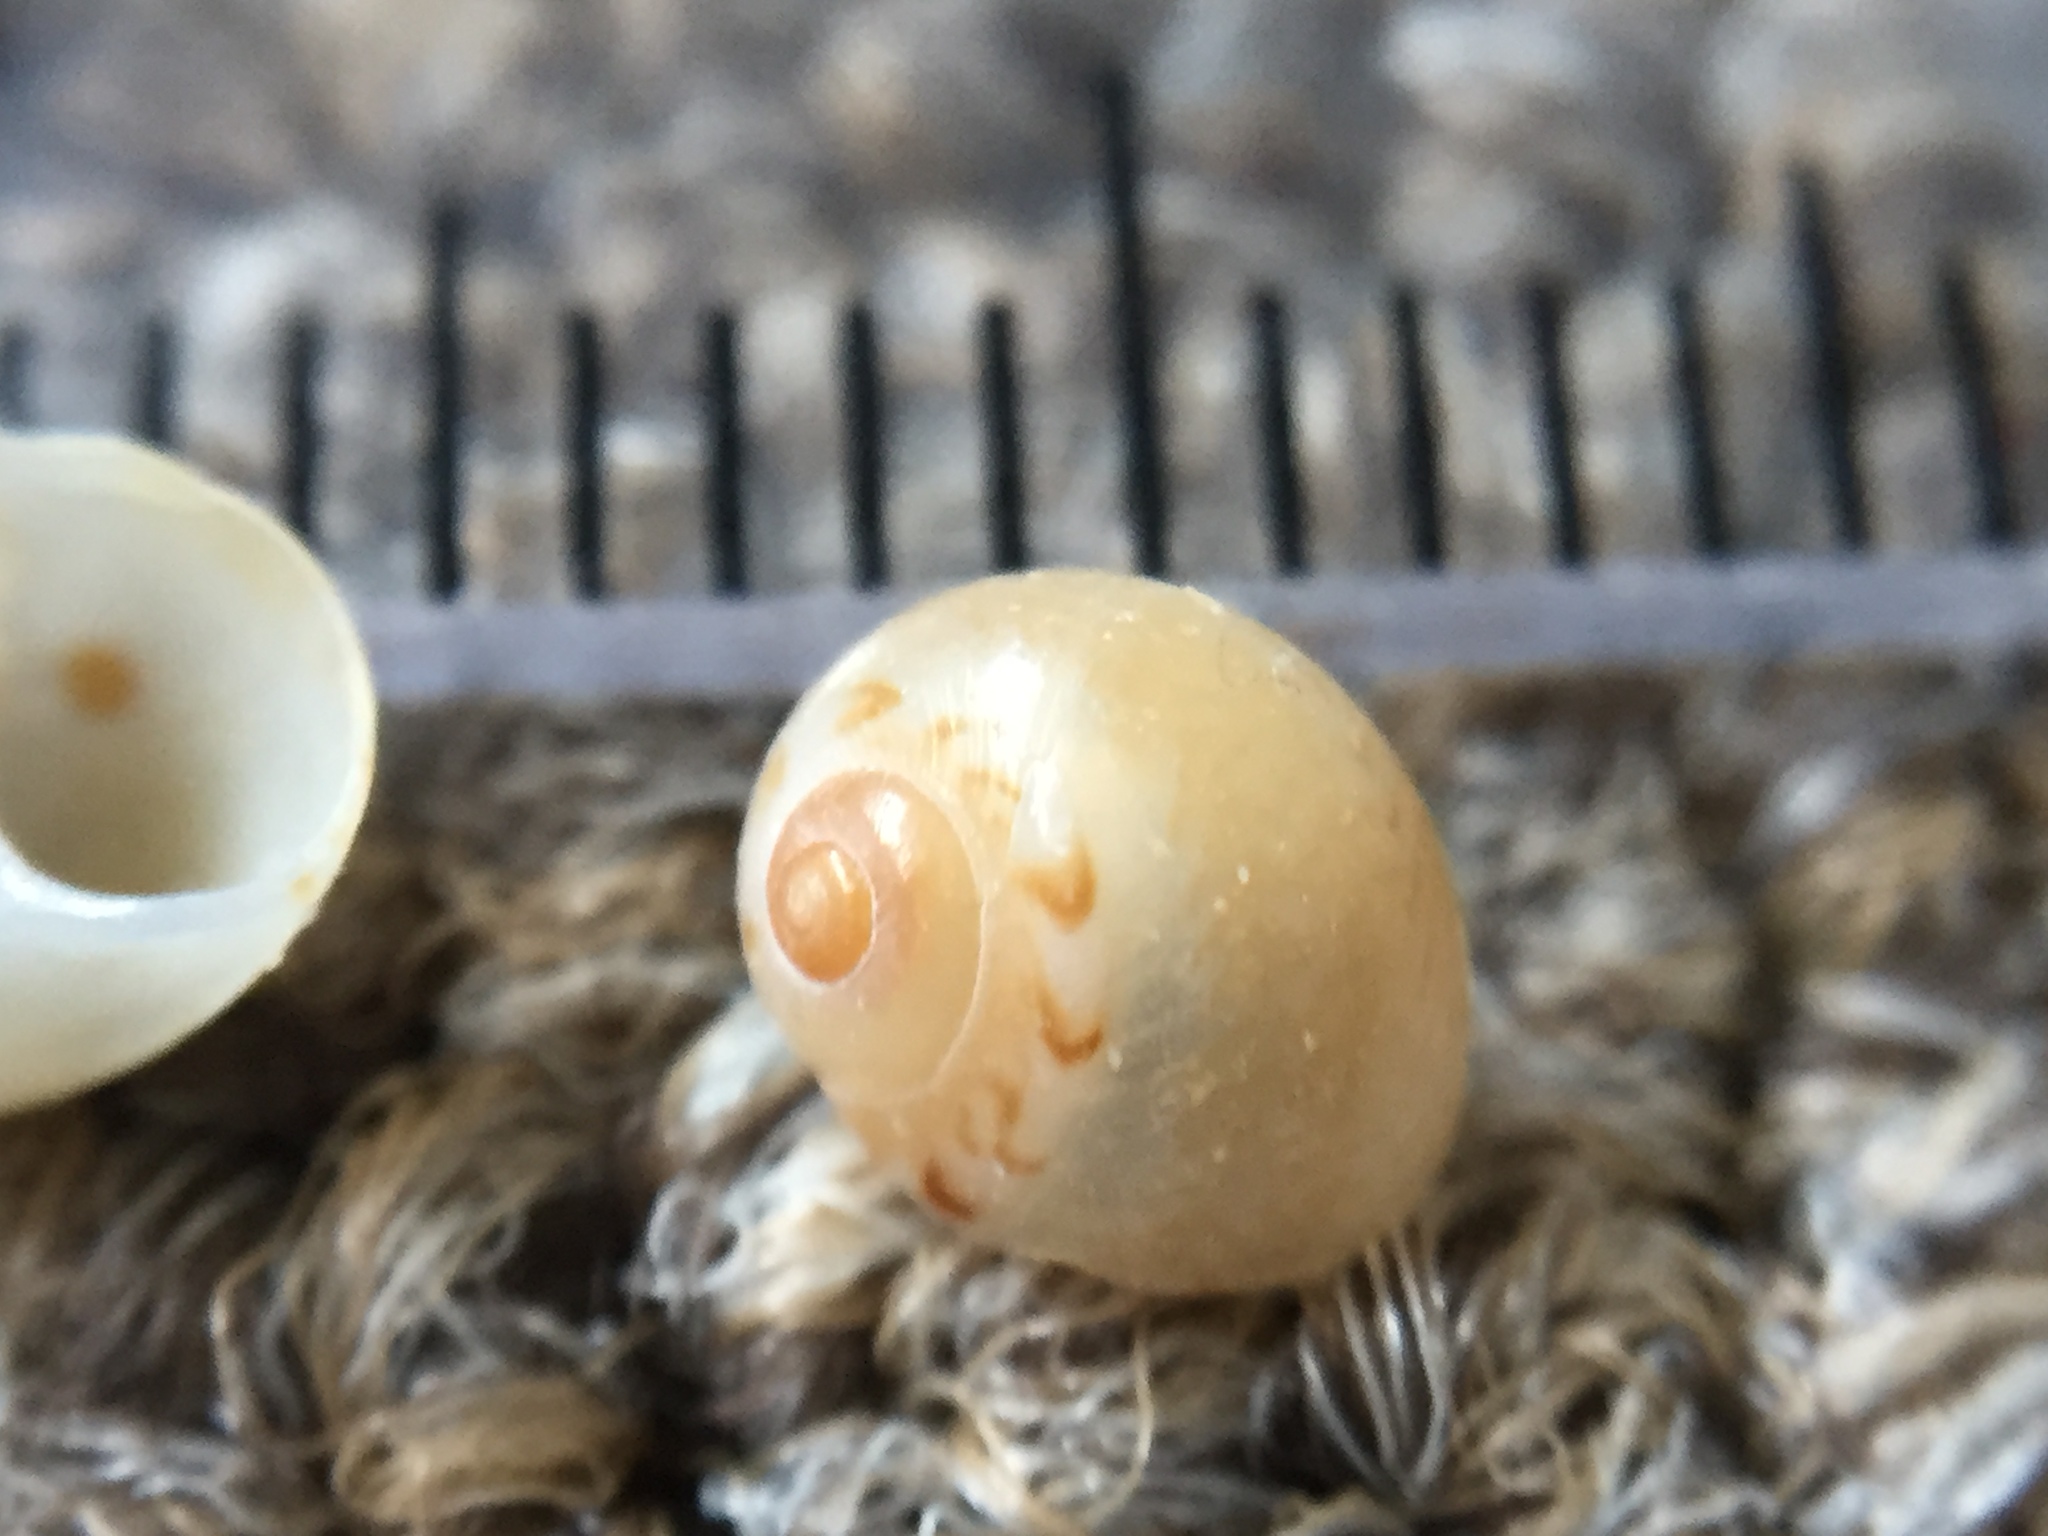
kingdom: Animalia
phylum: Mollusca
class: Gastropoda
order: Littorinimorpha
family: Naticidae
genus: Tanea
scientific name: Tanea zelandica
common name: New zealand moonsnail
